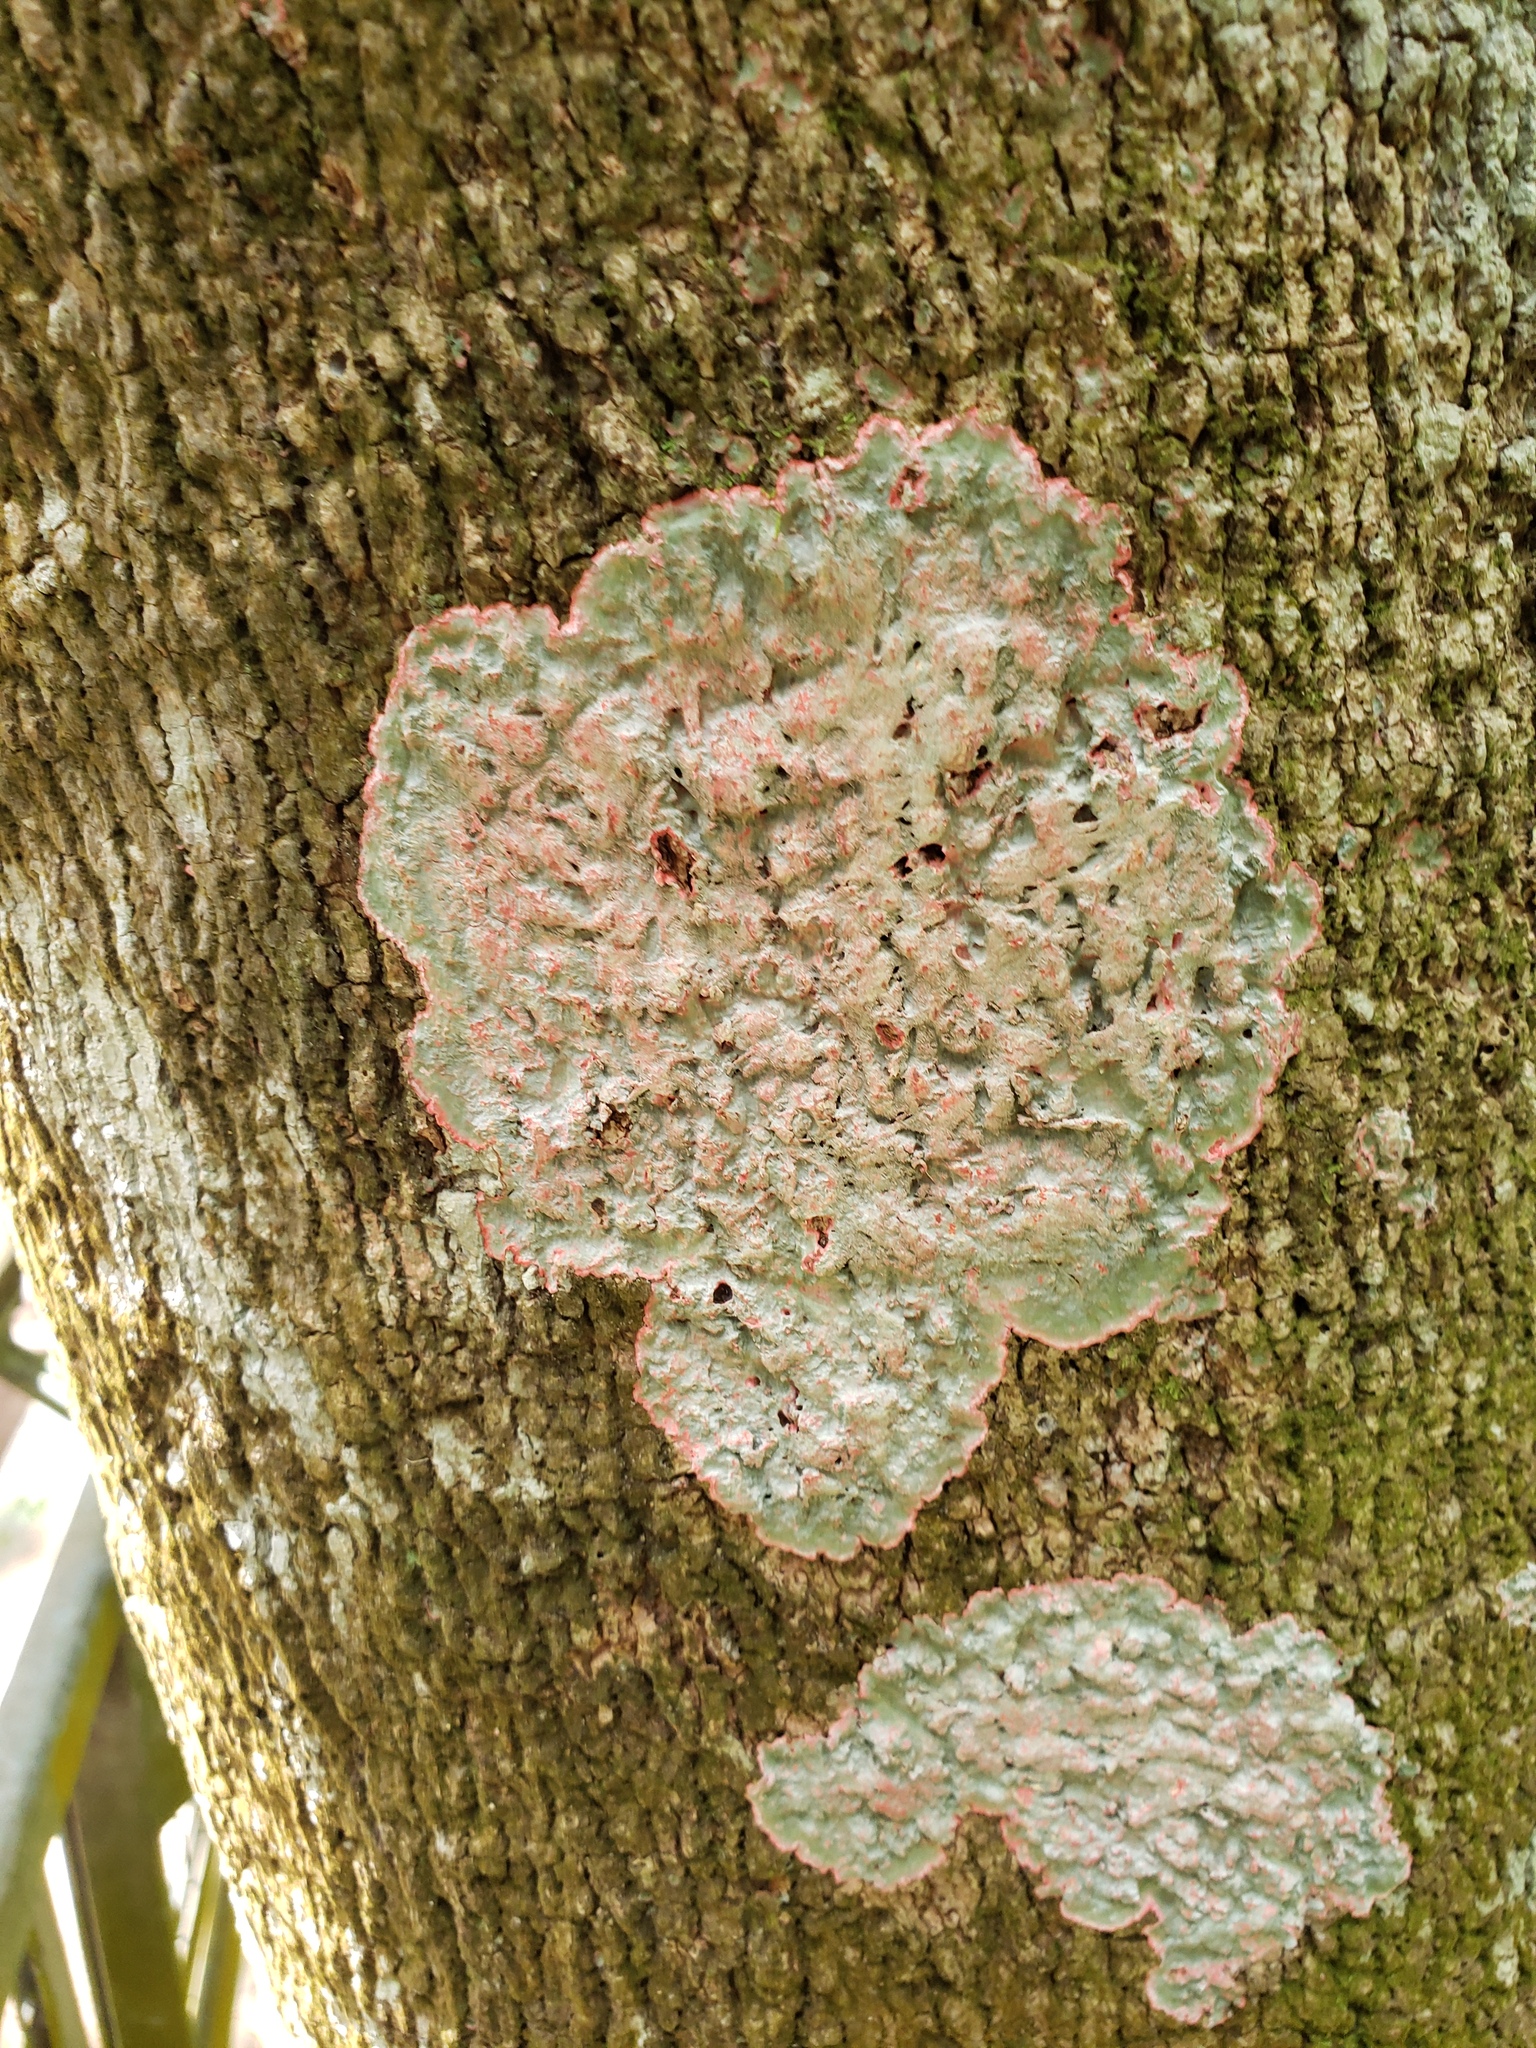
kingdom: Fungi
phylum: Ascomycota
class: Arthoniomycetes
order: Arthoniales
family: Arthoniaceae
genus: Herpothallon
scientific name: Herpothallon rubrocinctum
